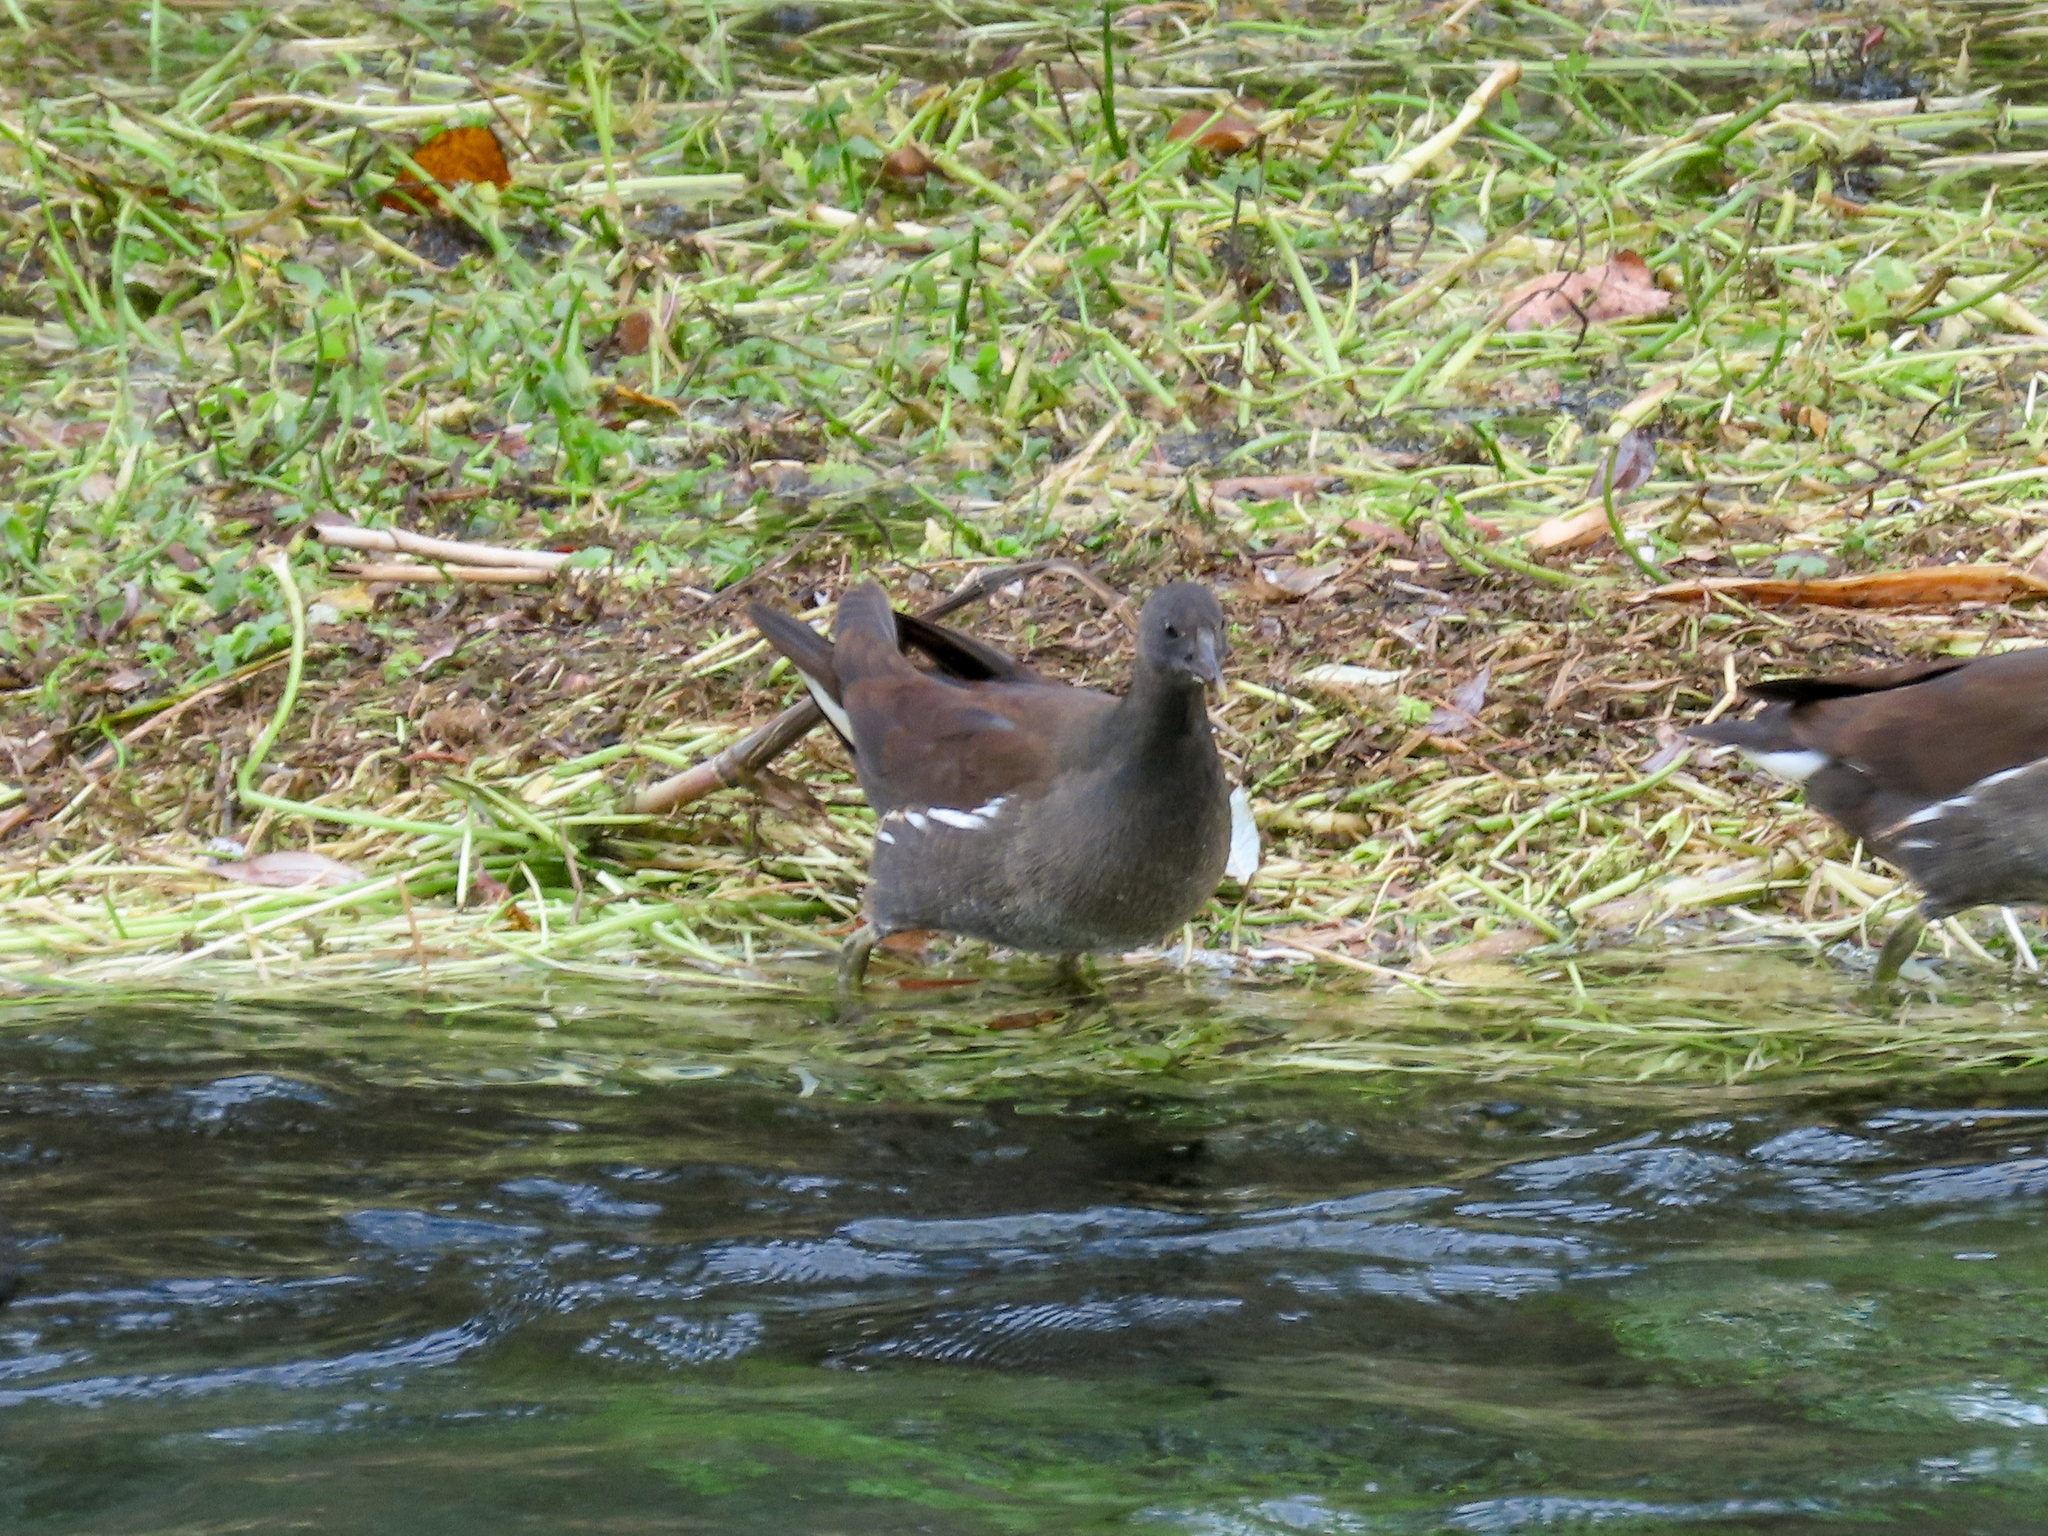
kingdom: Animalia
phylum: Chordata
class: Aves
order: Gruiformes
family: Rallidae
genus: Gallinula
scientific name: Gallinula chloropus
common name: Common moorhen
